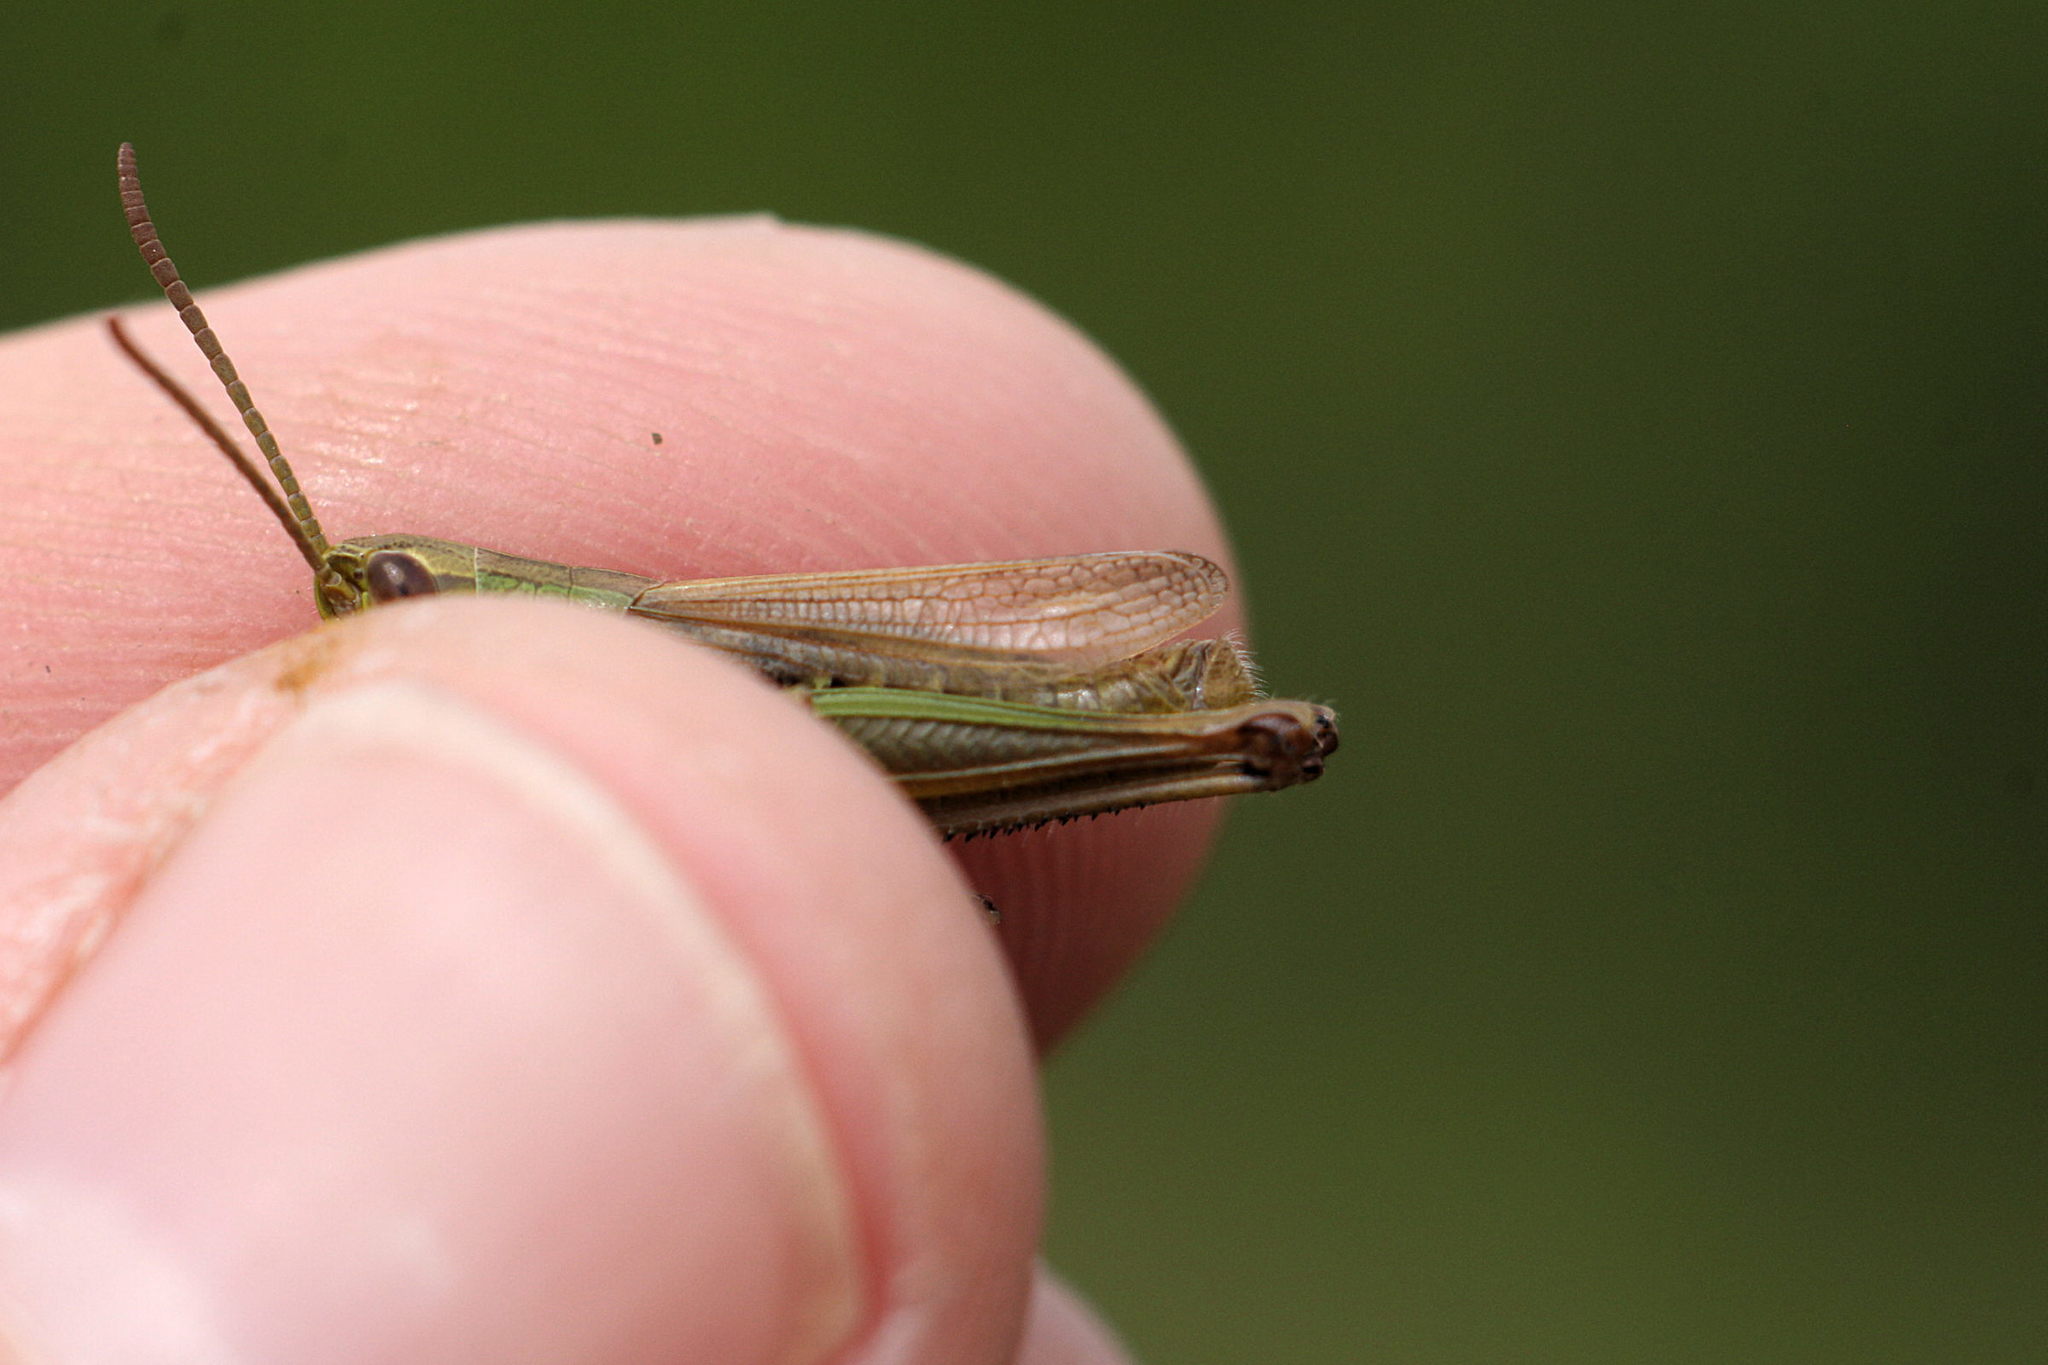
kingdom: Animalia
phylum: Arthropoda
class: Insecta
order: Orthoptera
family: Acrididae
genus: Pseudochorthippus
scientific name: Pseudochorthippus parallelus
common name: Meadow grasshopper
